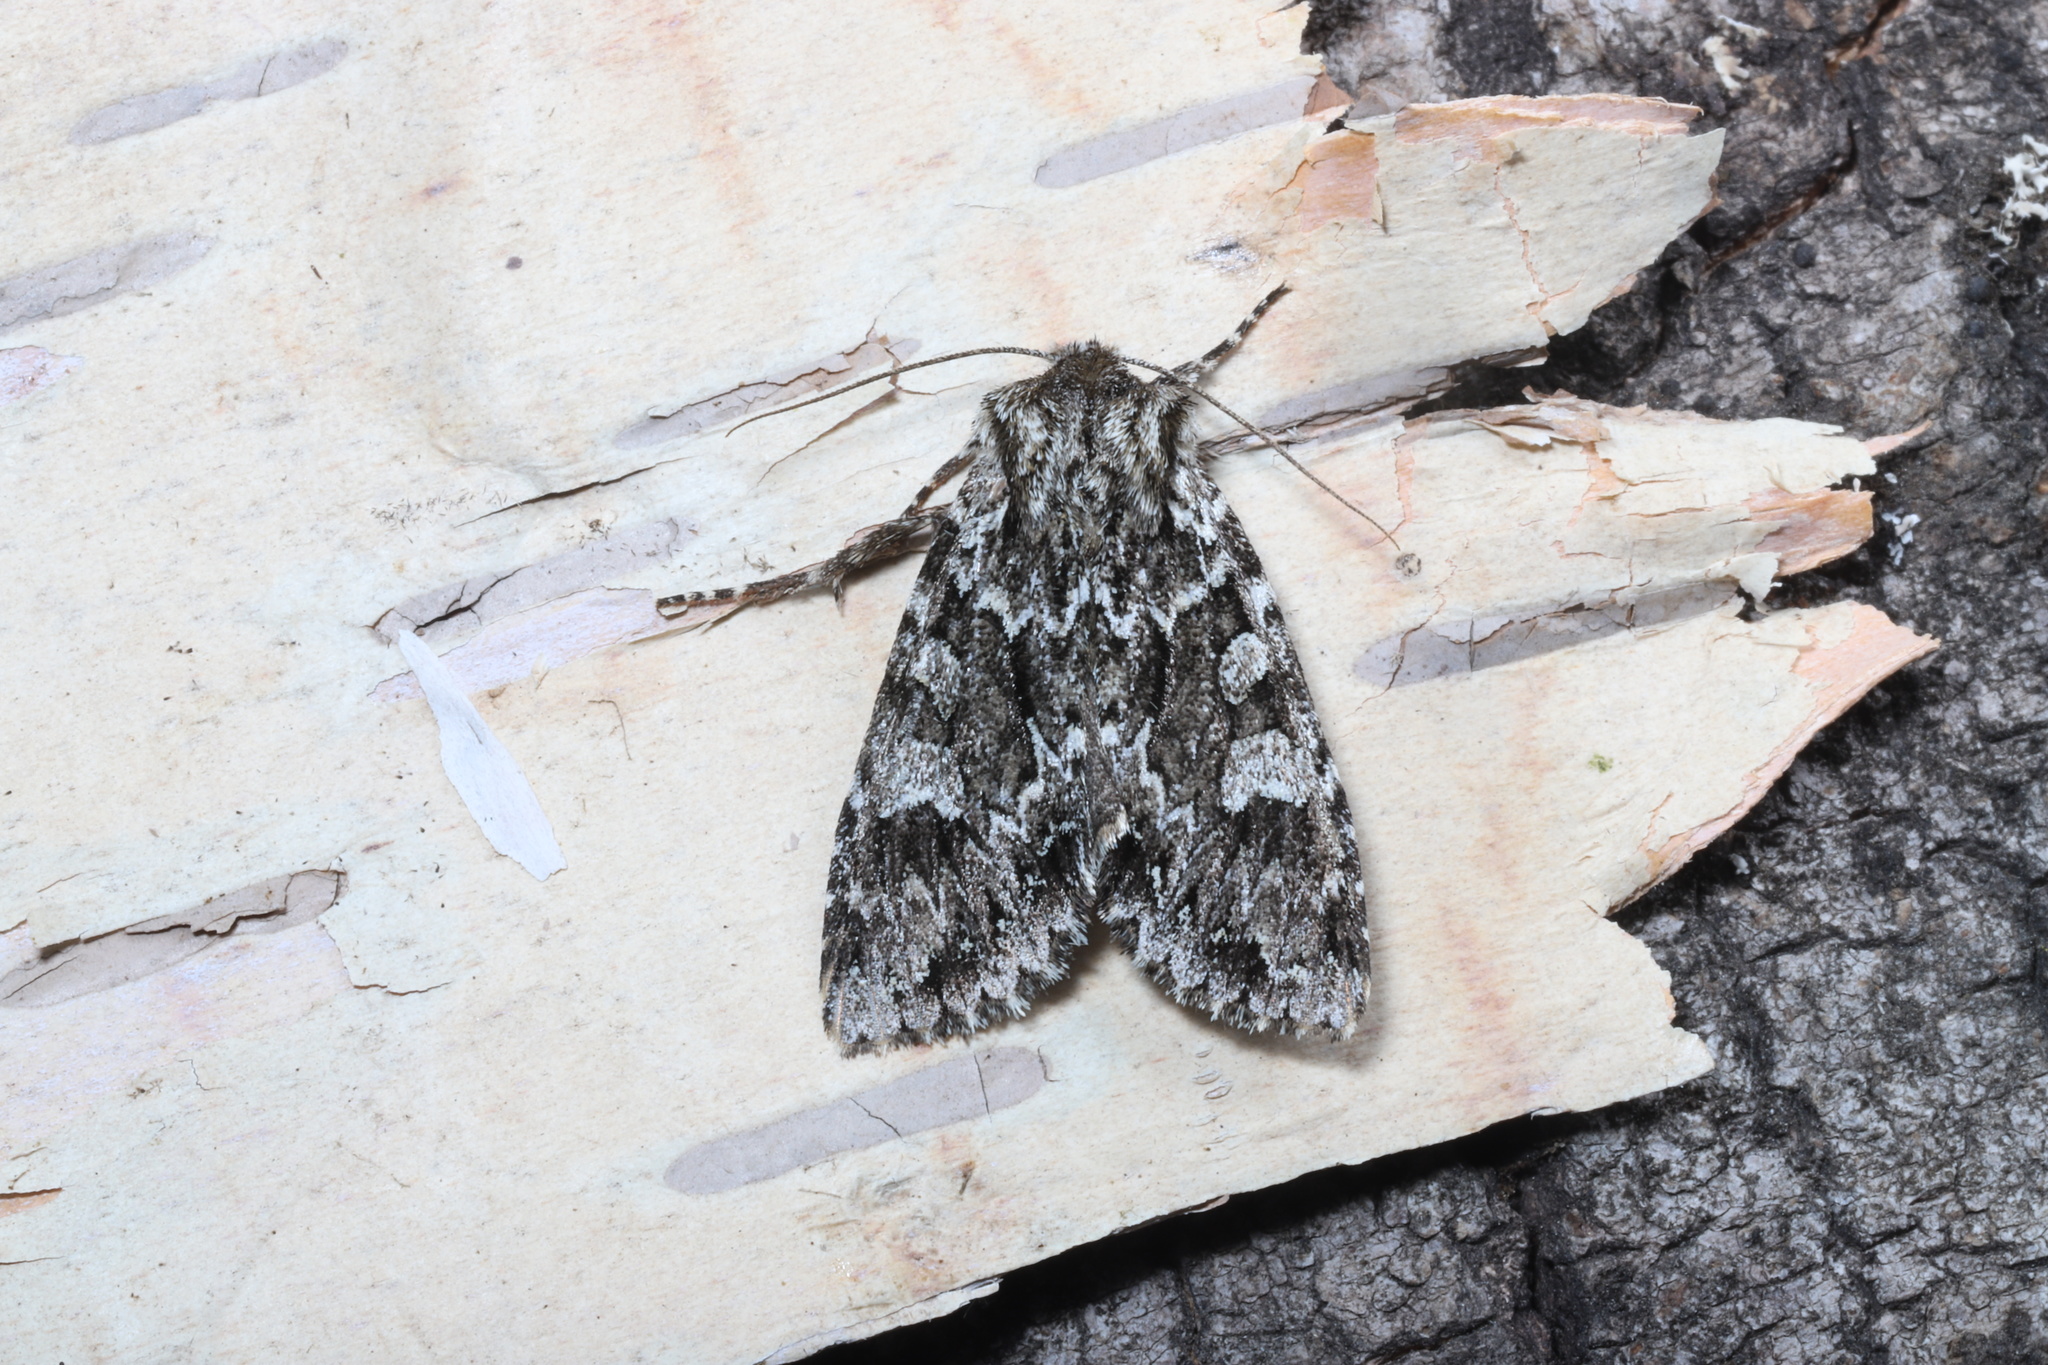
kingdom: Animalia
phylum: Arthropoda
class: Insecta
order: Lepidoptera
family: Noctuidae
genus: Platypolia
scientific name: Platypolia anceps
